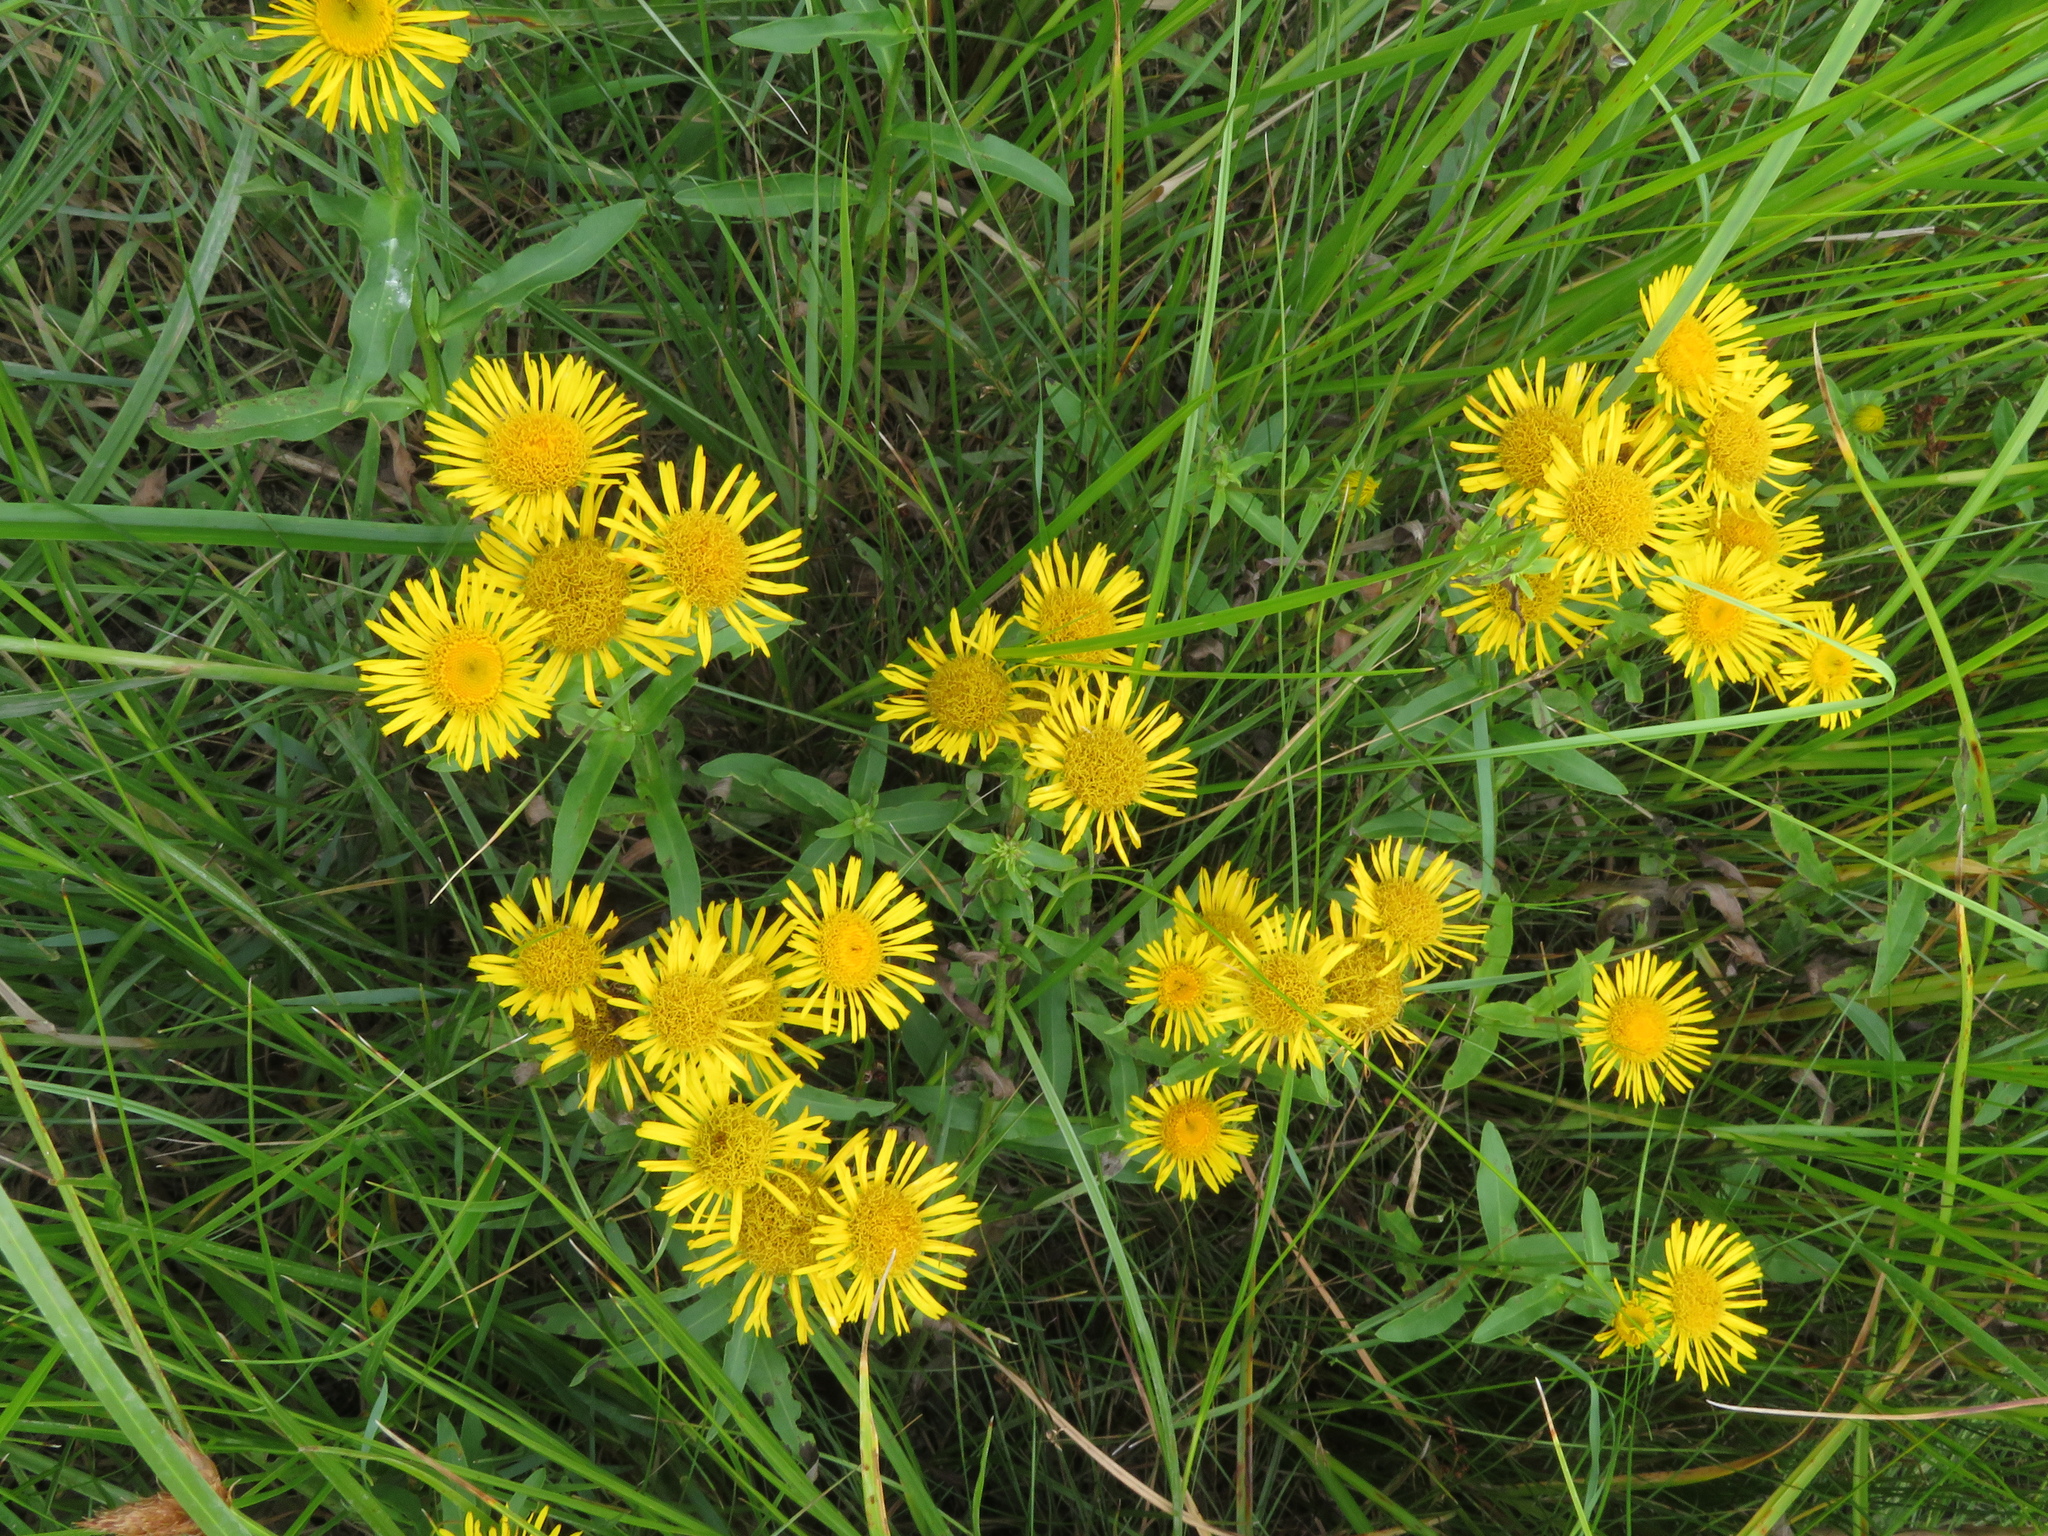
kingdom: Plantae
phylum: Tracheophyta
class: Magnoliopsida
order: Asterales
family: Asteraceae
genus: Pentanema
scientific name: Pentanema britannicum
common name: British elecampane
